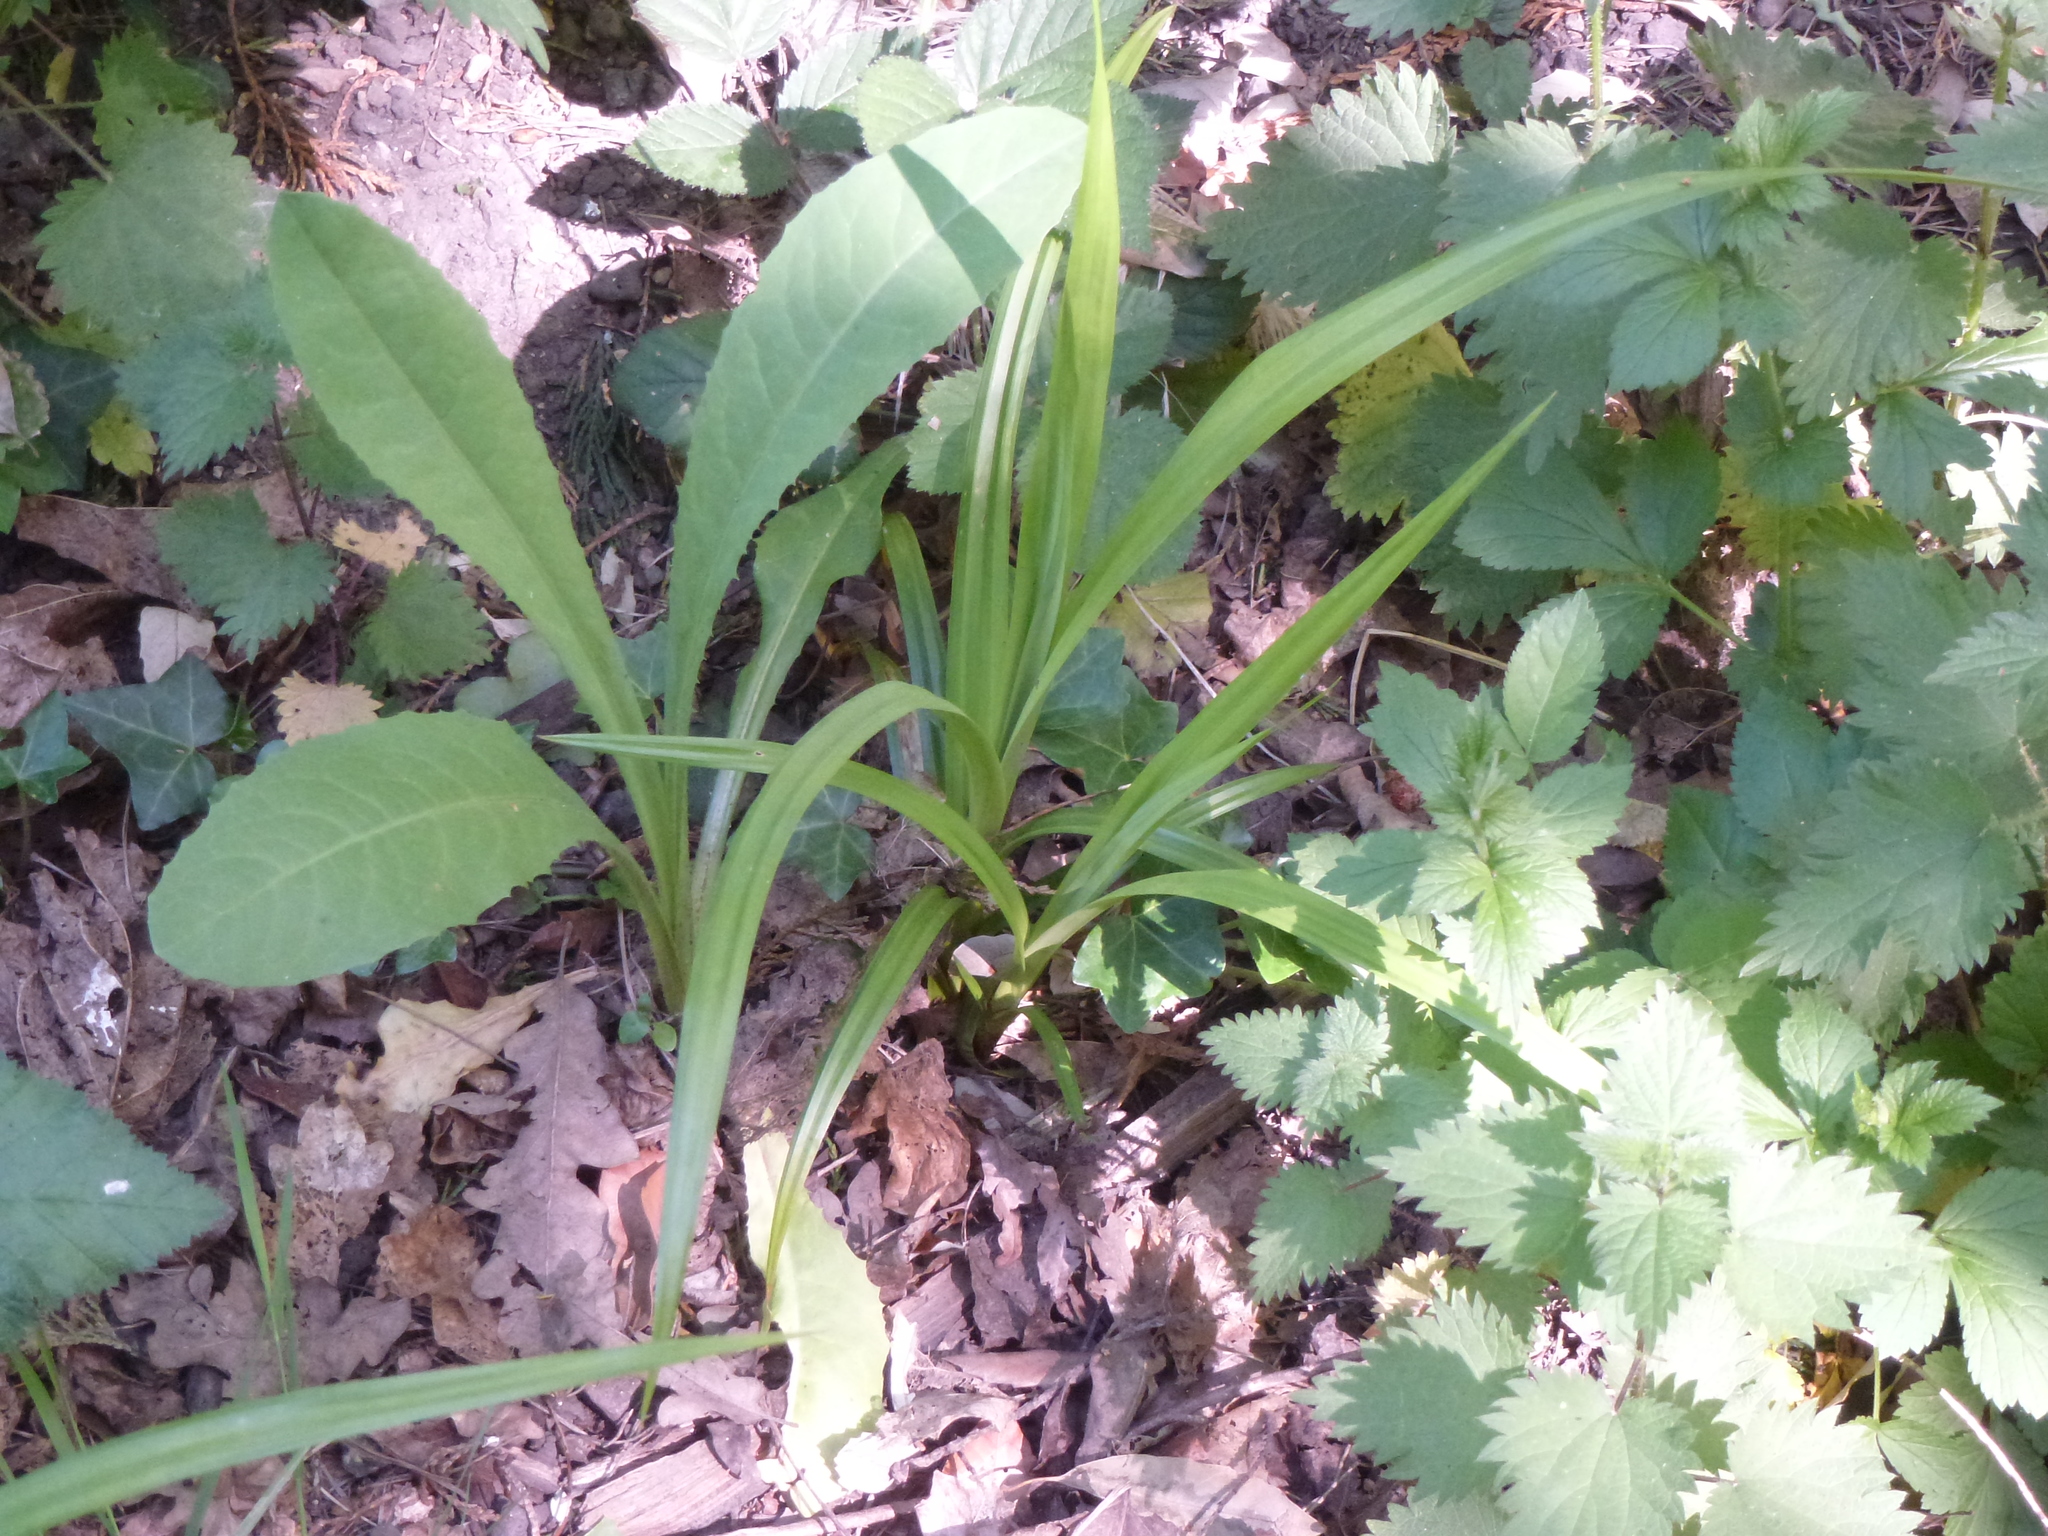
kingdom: Plantae
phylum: Tracheophyta
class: Liliopsida
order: Poales
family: Cyperaceae
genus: Carex
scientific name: Carex sylvatica
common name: Wood-sedge
